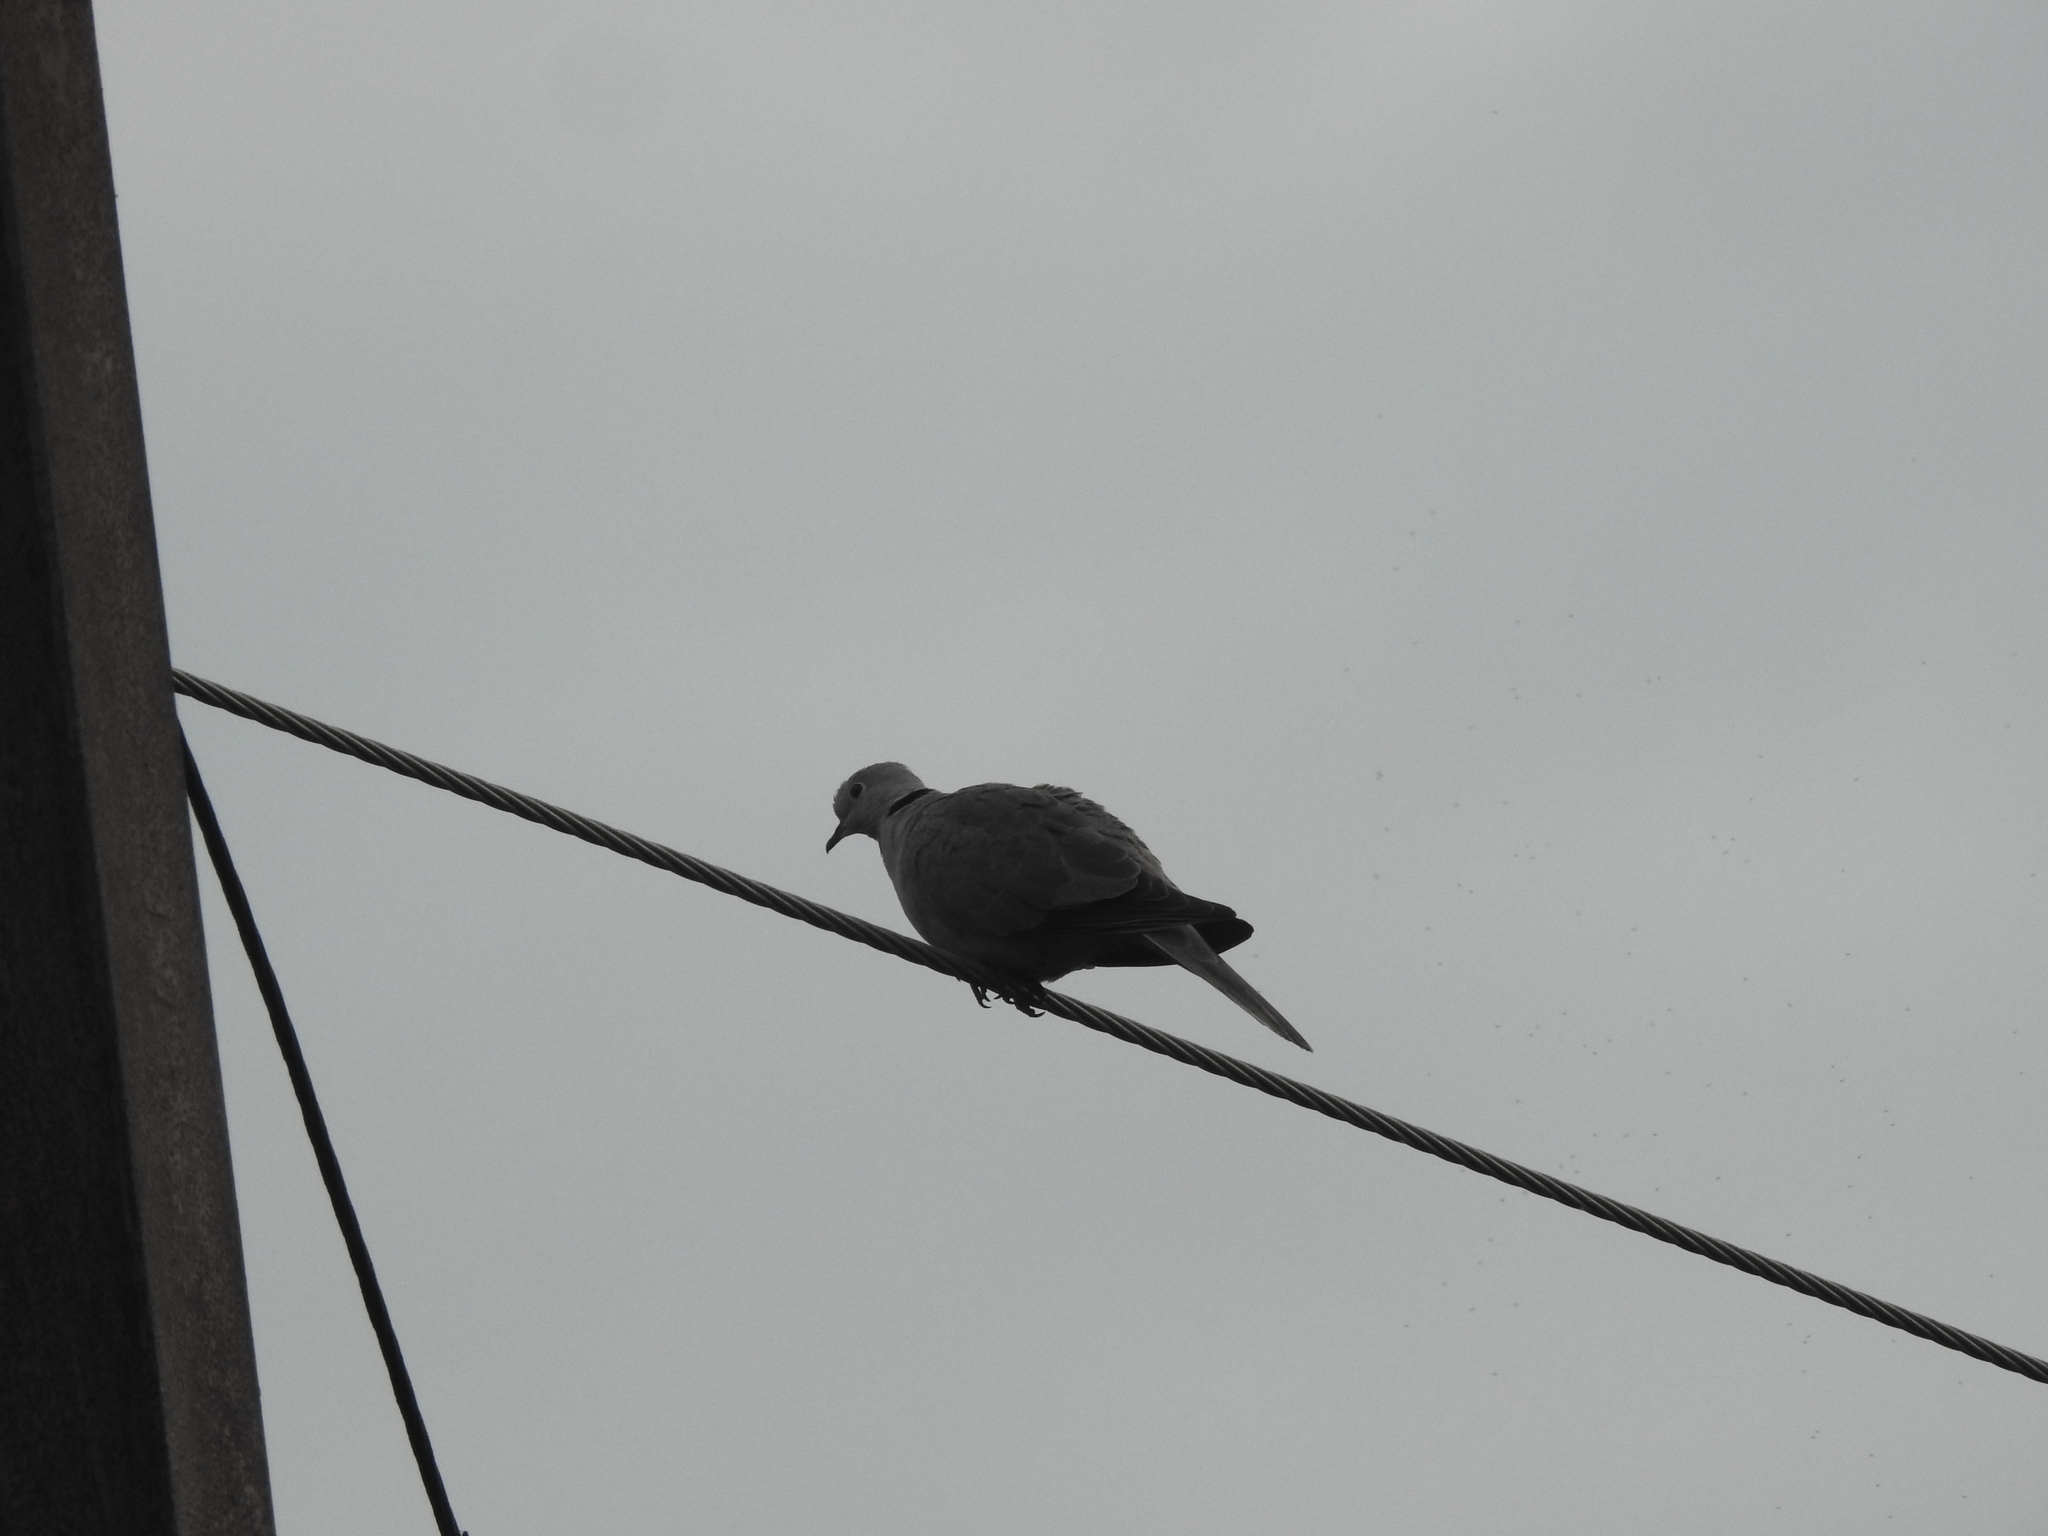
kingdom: Animalia
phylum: Chordata
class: Aves
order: Columbiformes
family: Columbidae
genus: Streptopelia
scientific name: Streptopelia decaocto
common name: Eurasian collared dove
